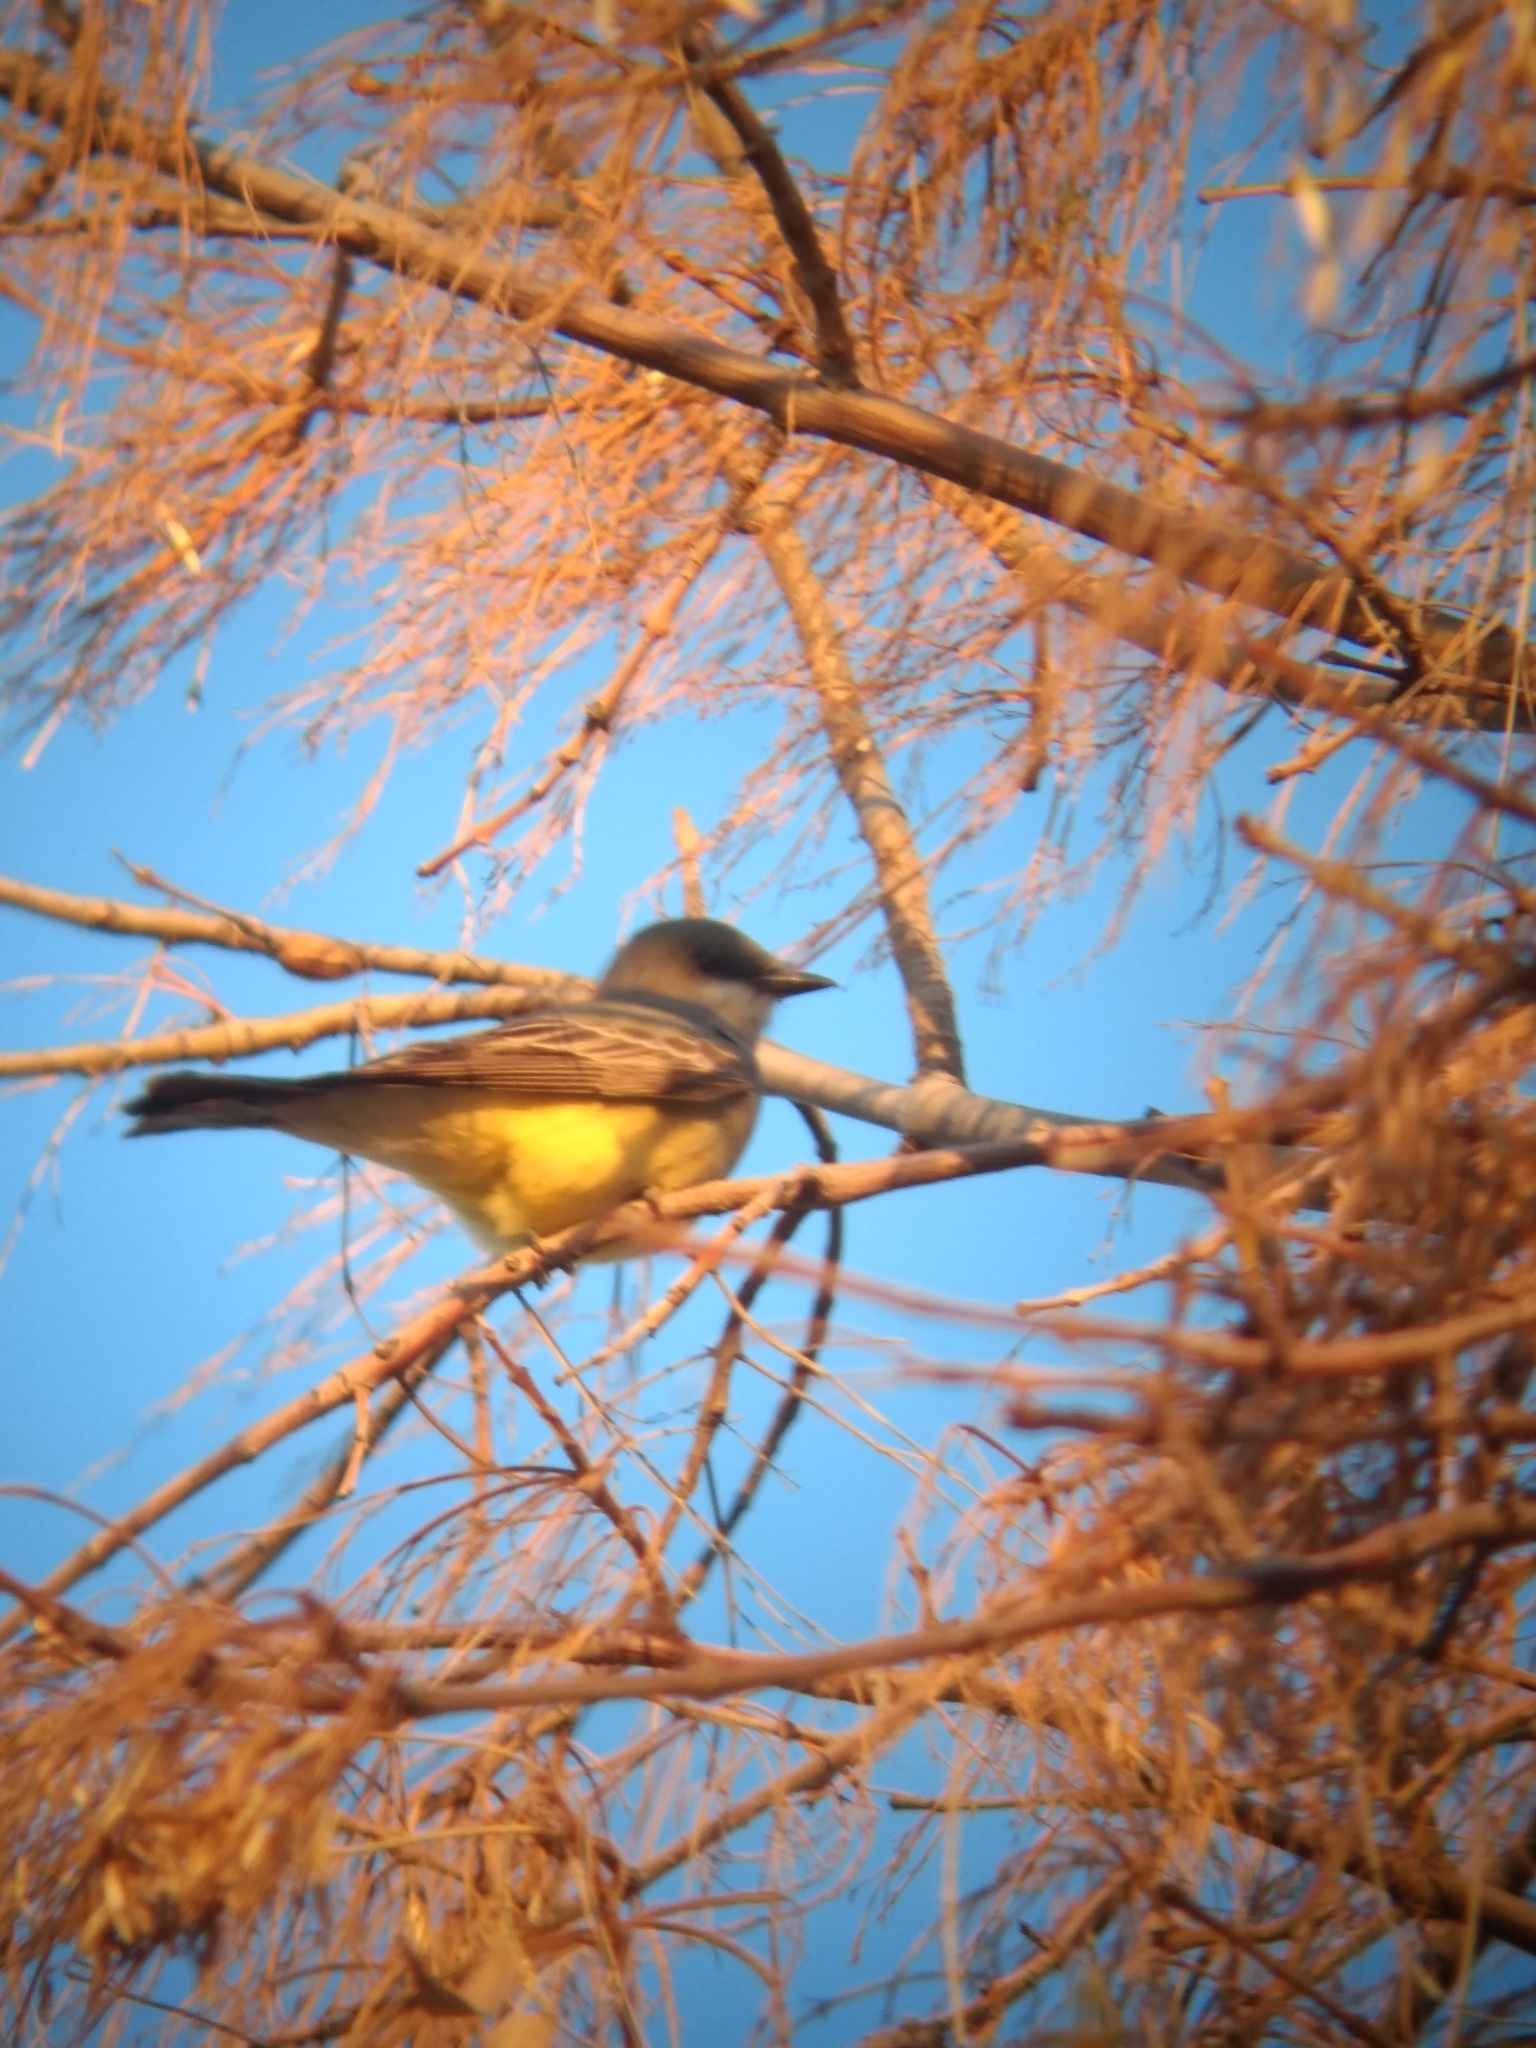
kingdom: Animalia
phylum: Chordata
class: Aves
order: Passeriformes
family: Tyrannidae
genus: Tyrannus
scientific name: Tyrannus vociferans
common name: Cassin's kingbird
